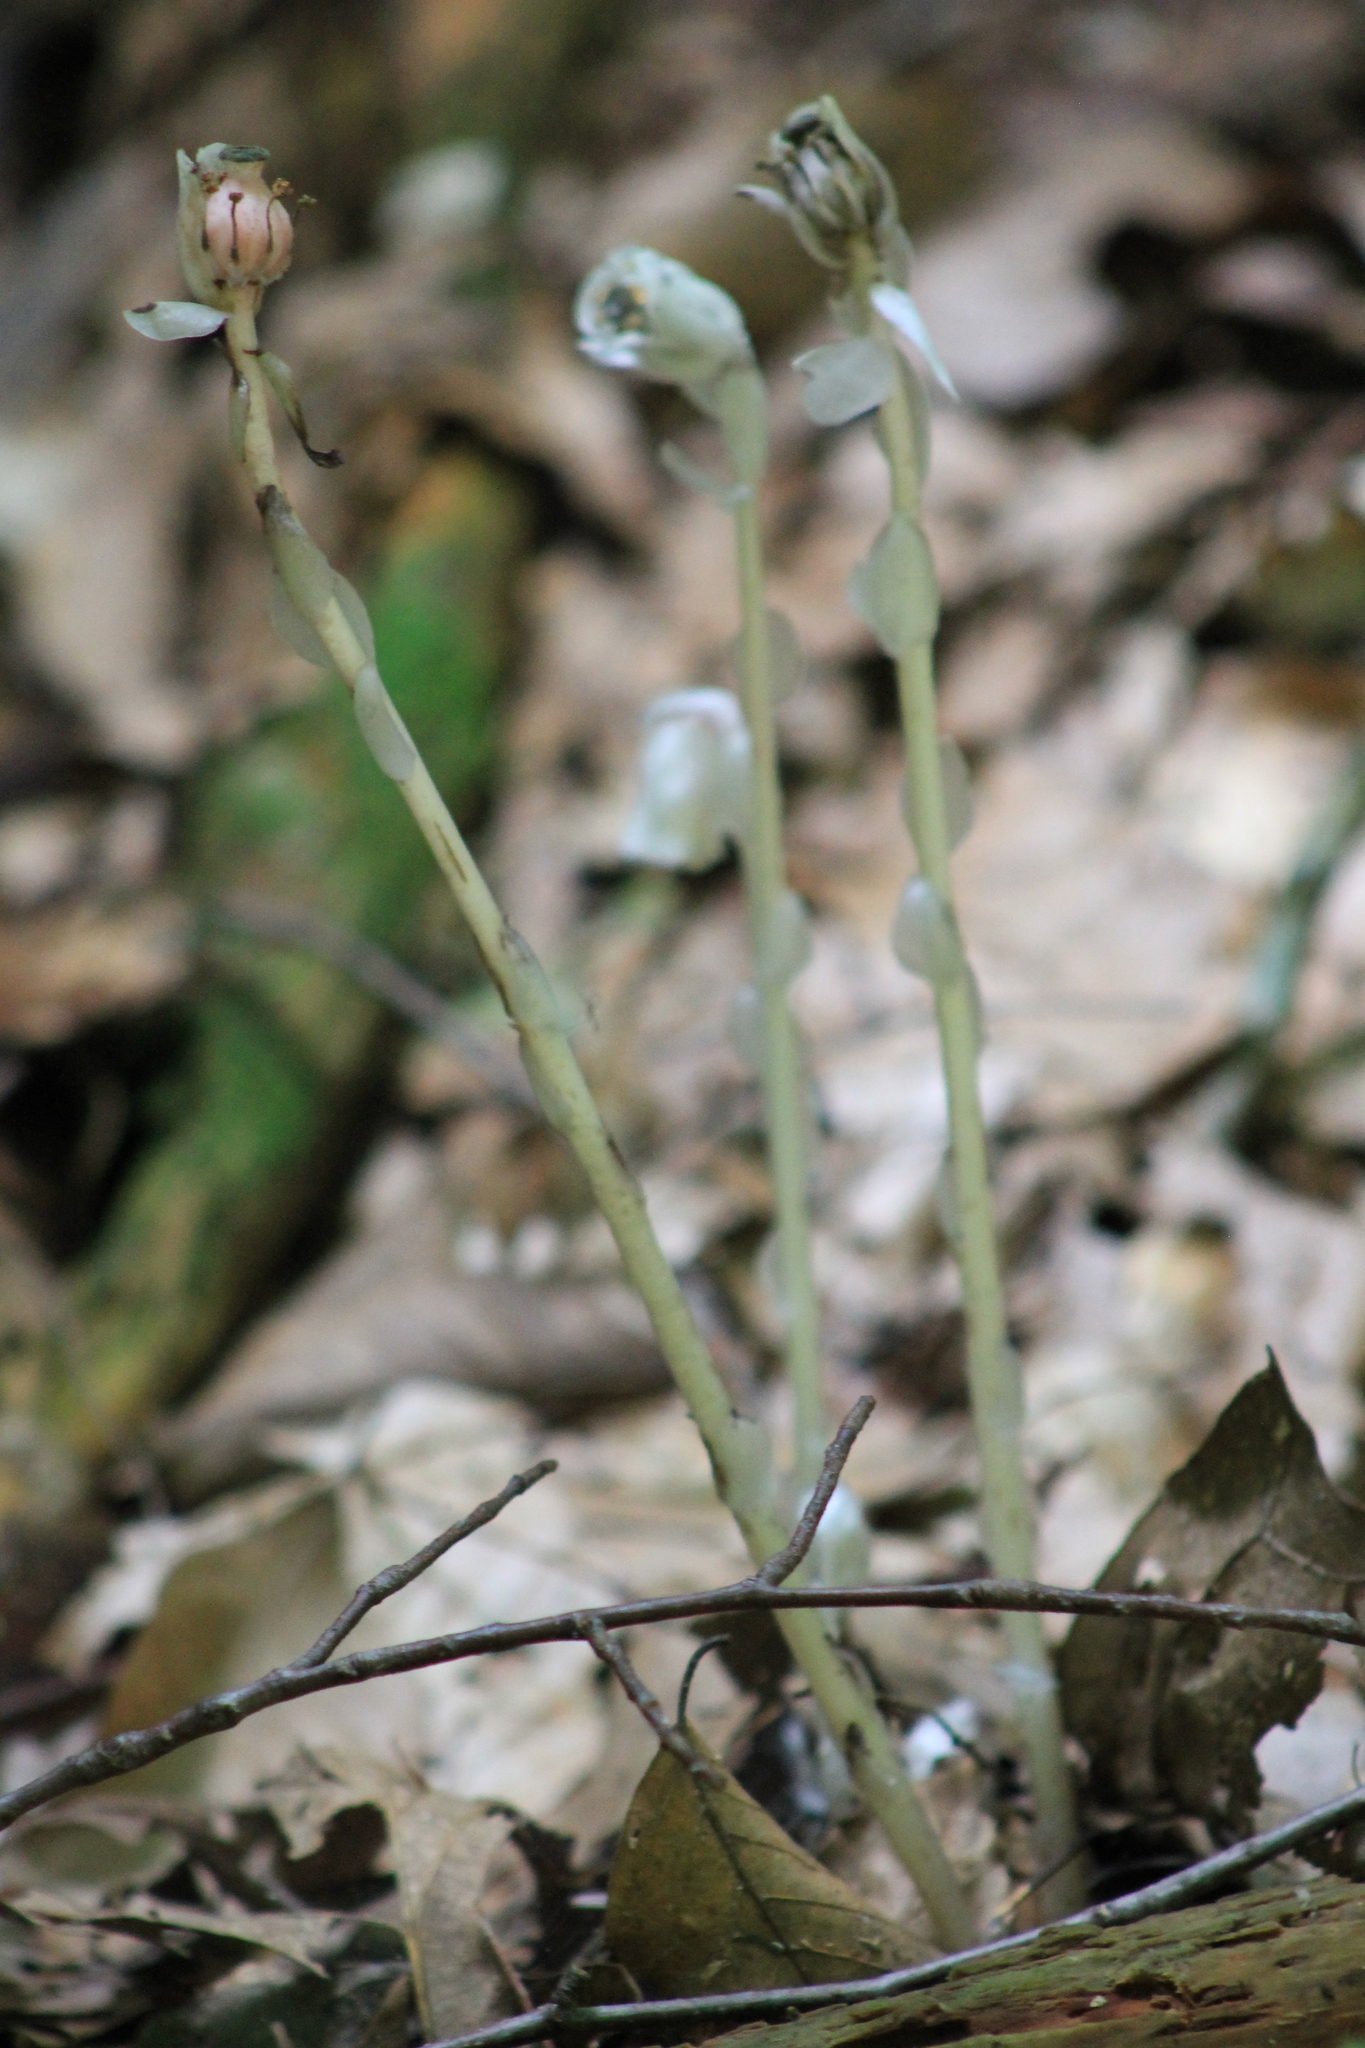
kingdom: Plantae
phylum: Tracheophyta
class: Magnoliopsida
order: Ericales
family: Ericaceae
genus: Monotropa
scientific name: Monotropa uniflora
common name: Convulsion root
